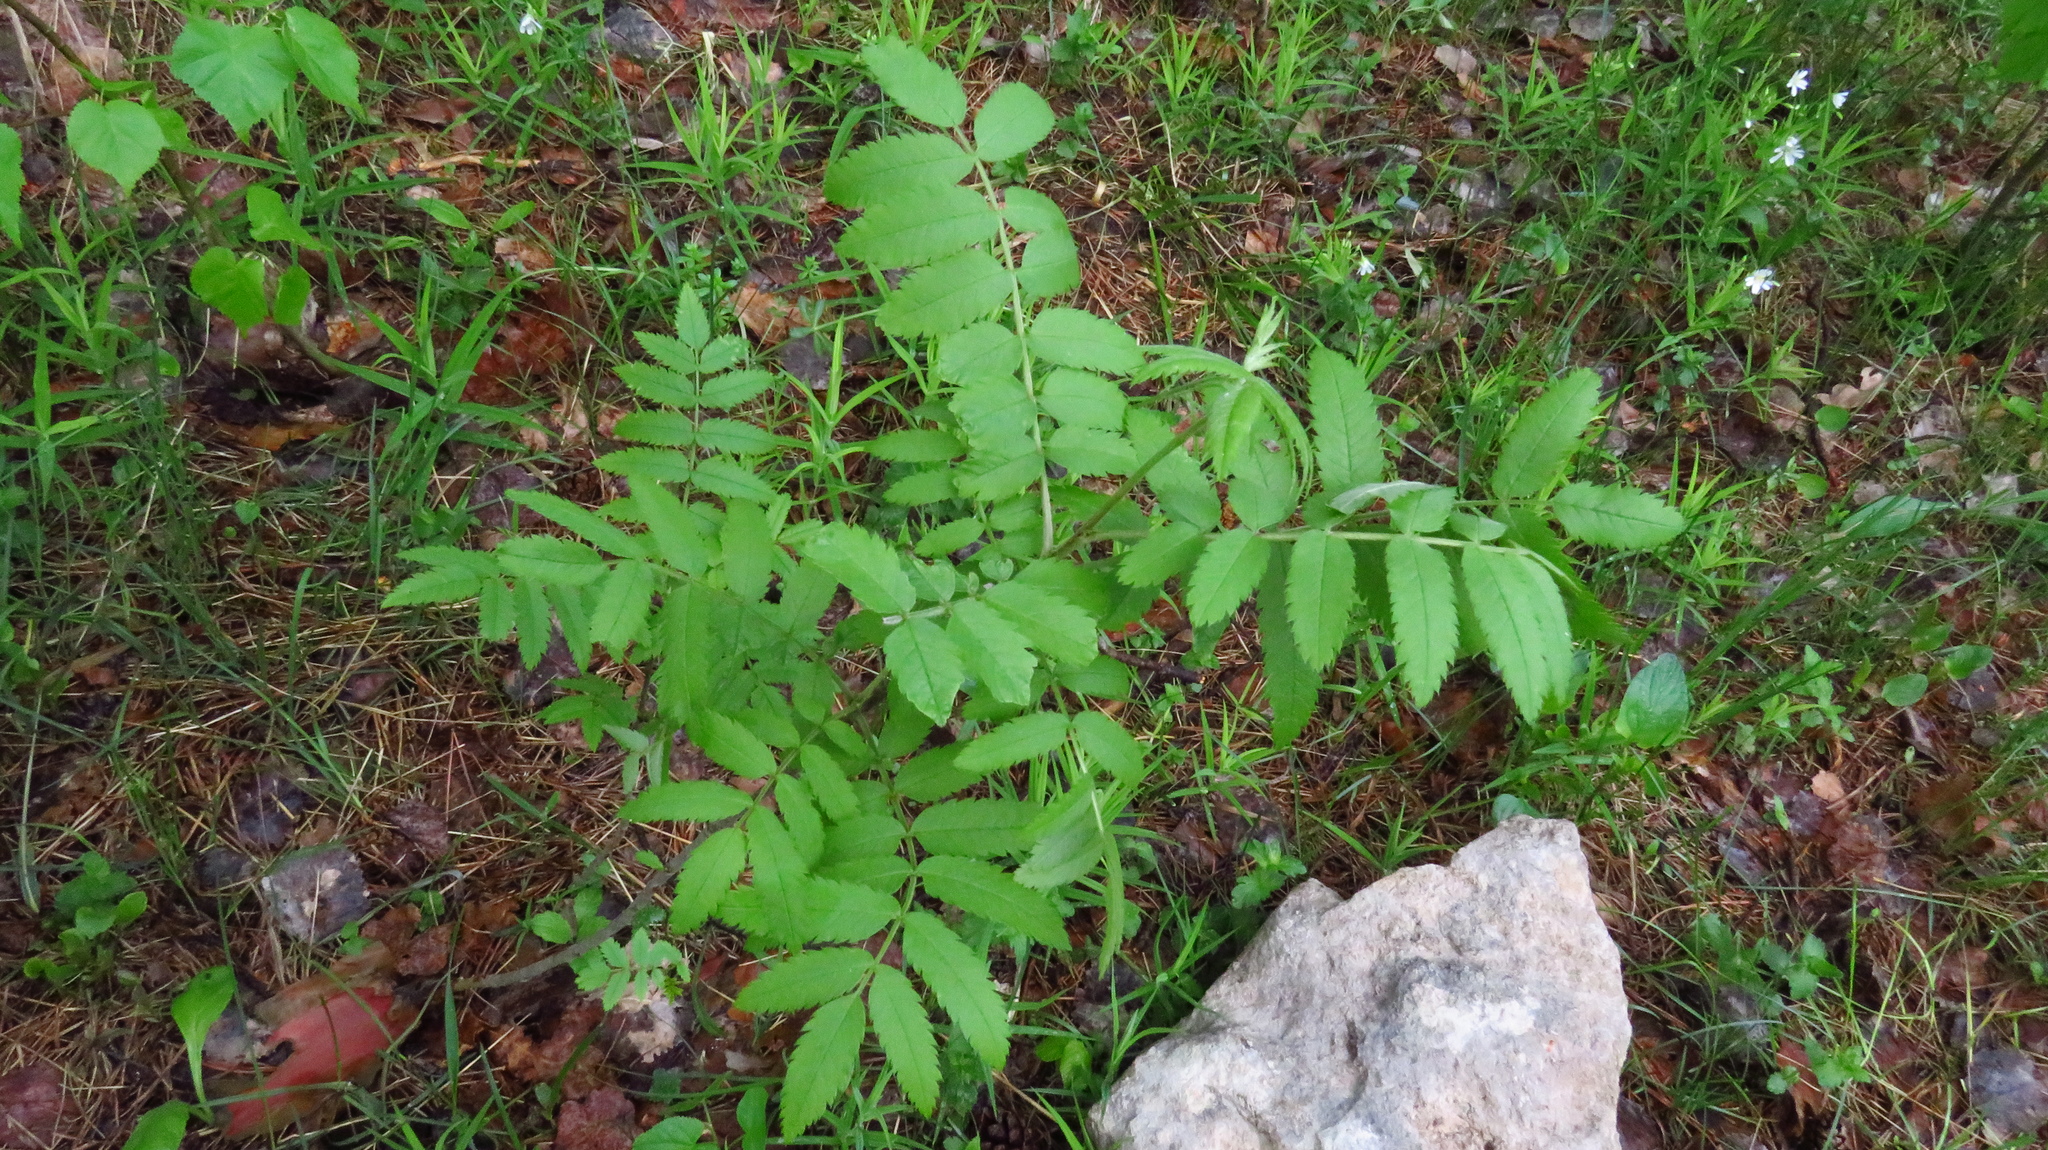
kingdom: Plantae
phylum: Tracheophyta
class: Magnoliopsida
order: Rosales
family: Rosaceae
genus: Sorbus
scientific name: Sorbus aucuparia
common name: Rowan
